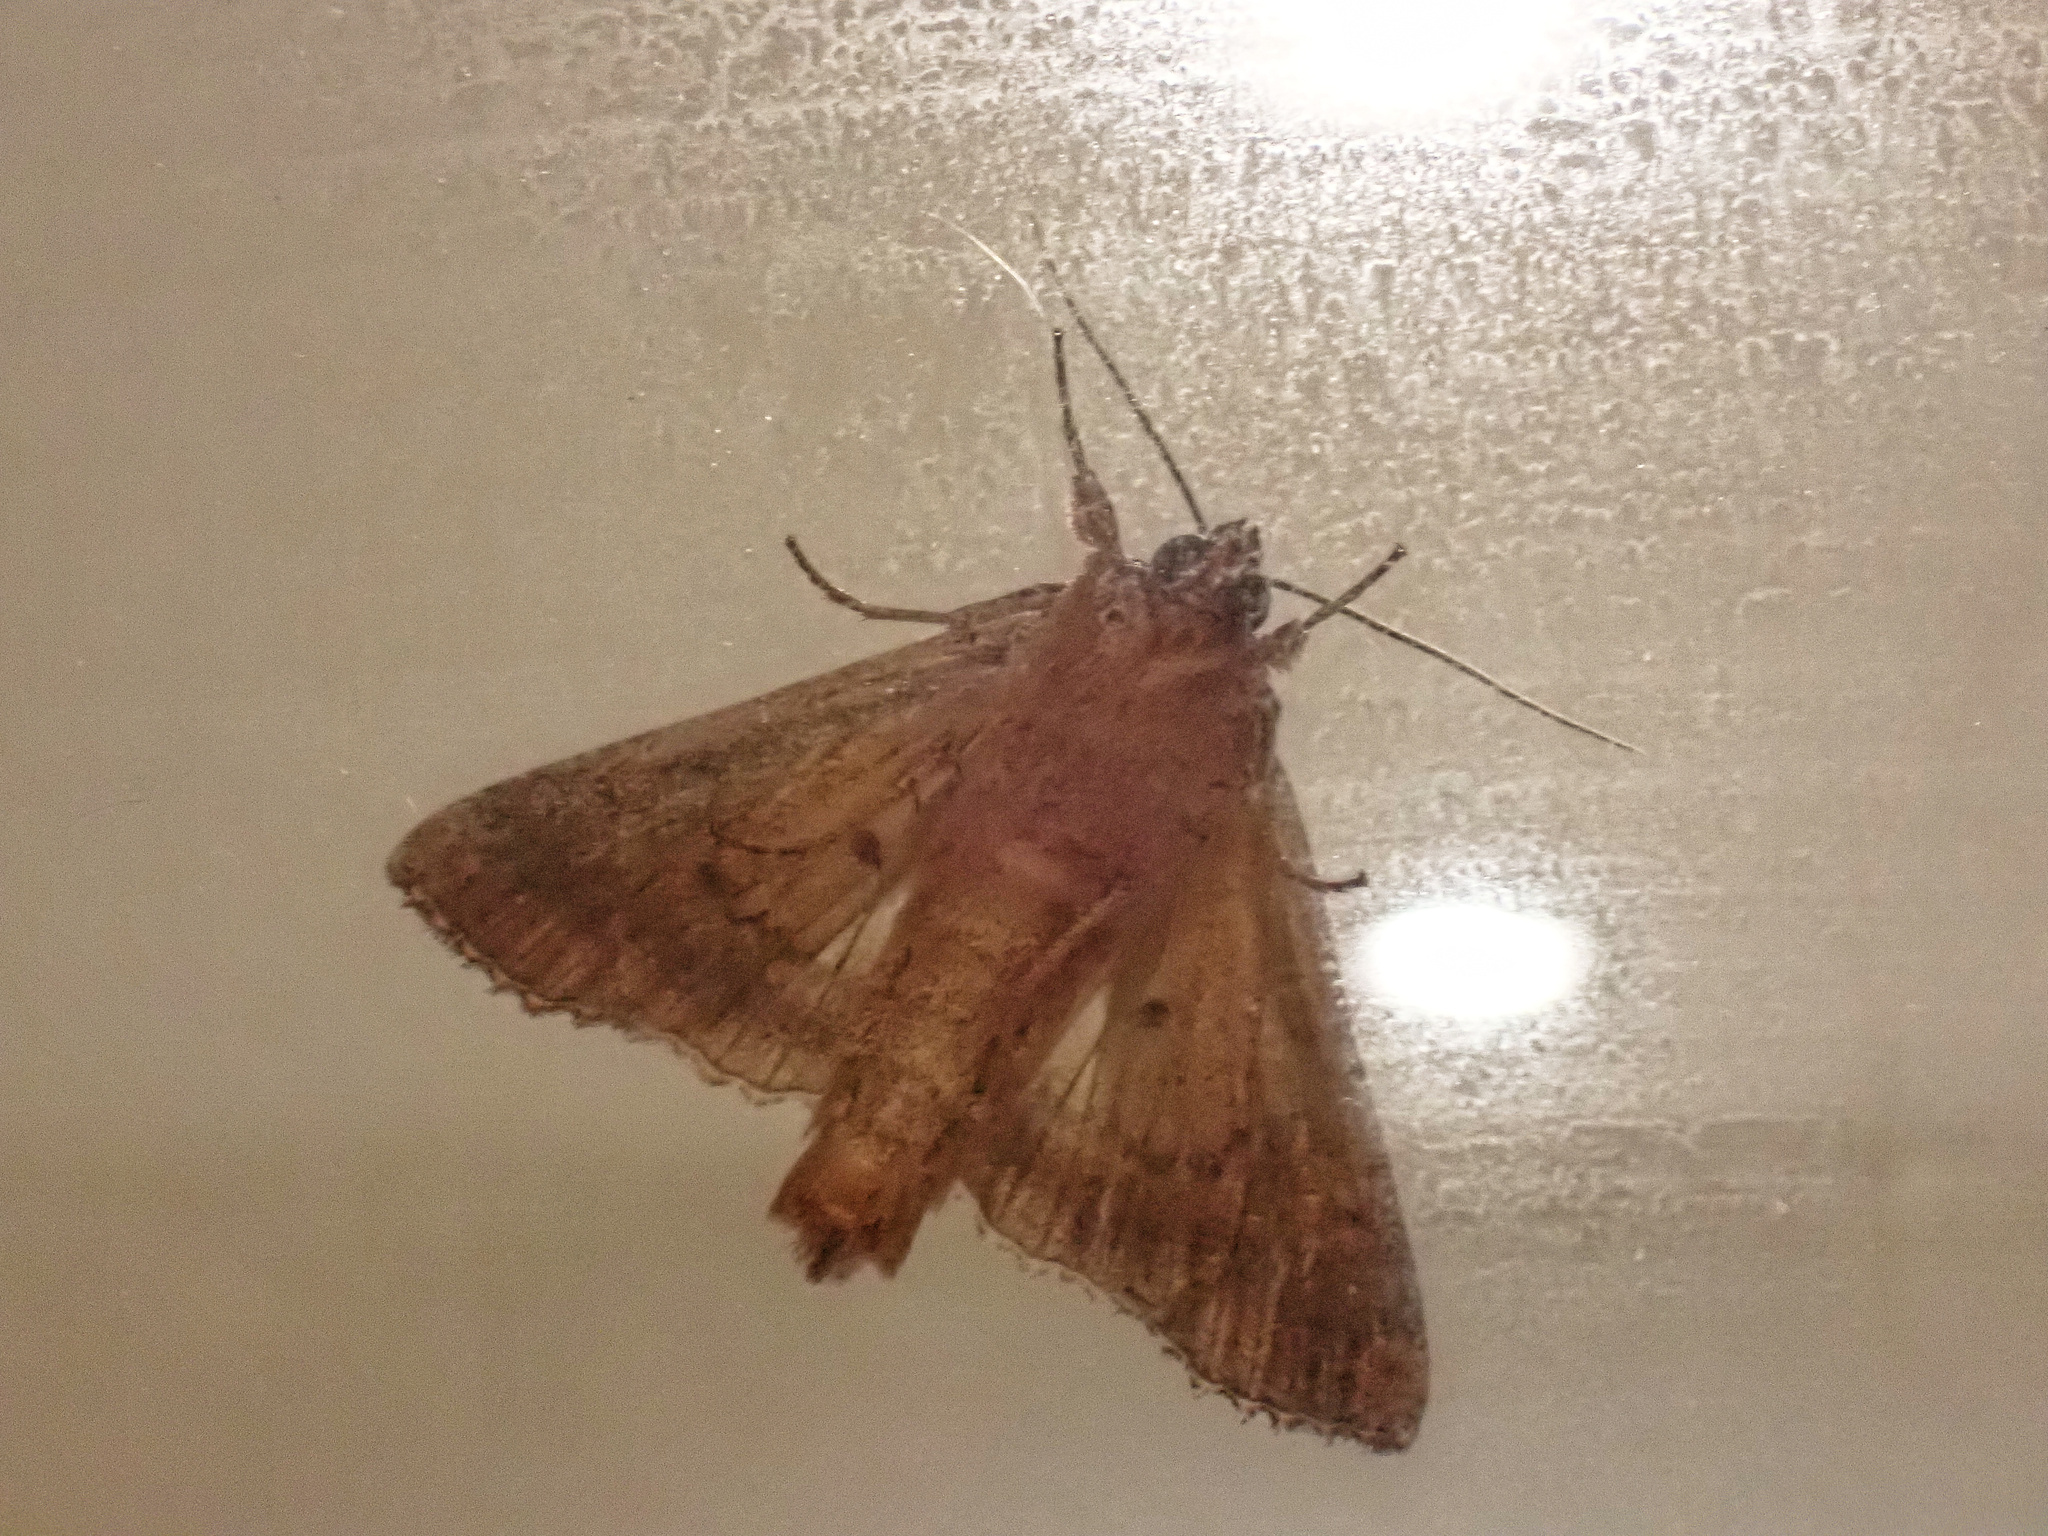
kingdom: Animalia
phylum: Arthropoda
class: Insecta
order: Lepidoptera
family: Noctuidae
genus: Apamea
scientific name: Apamea monoglypha
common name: Dark arches
